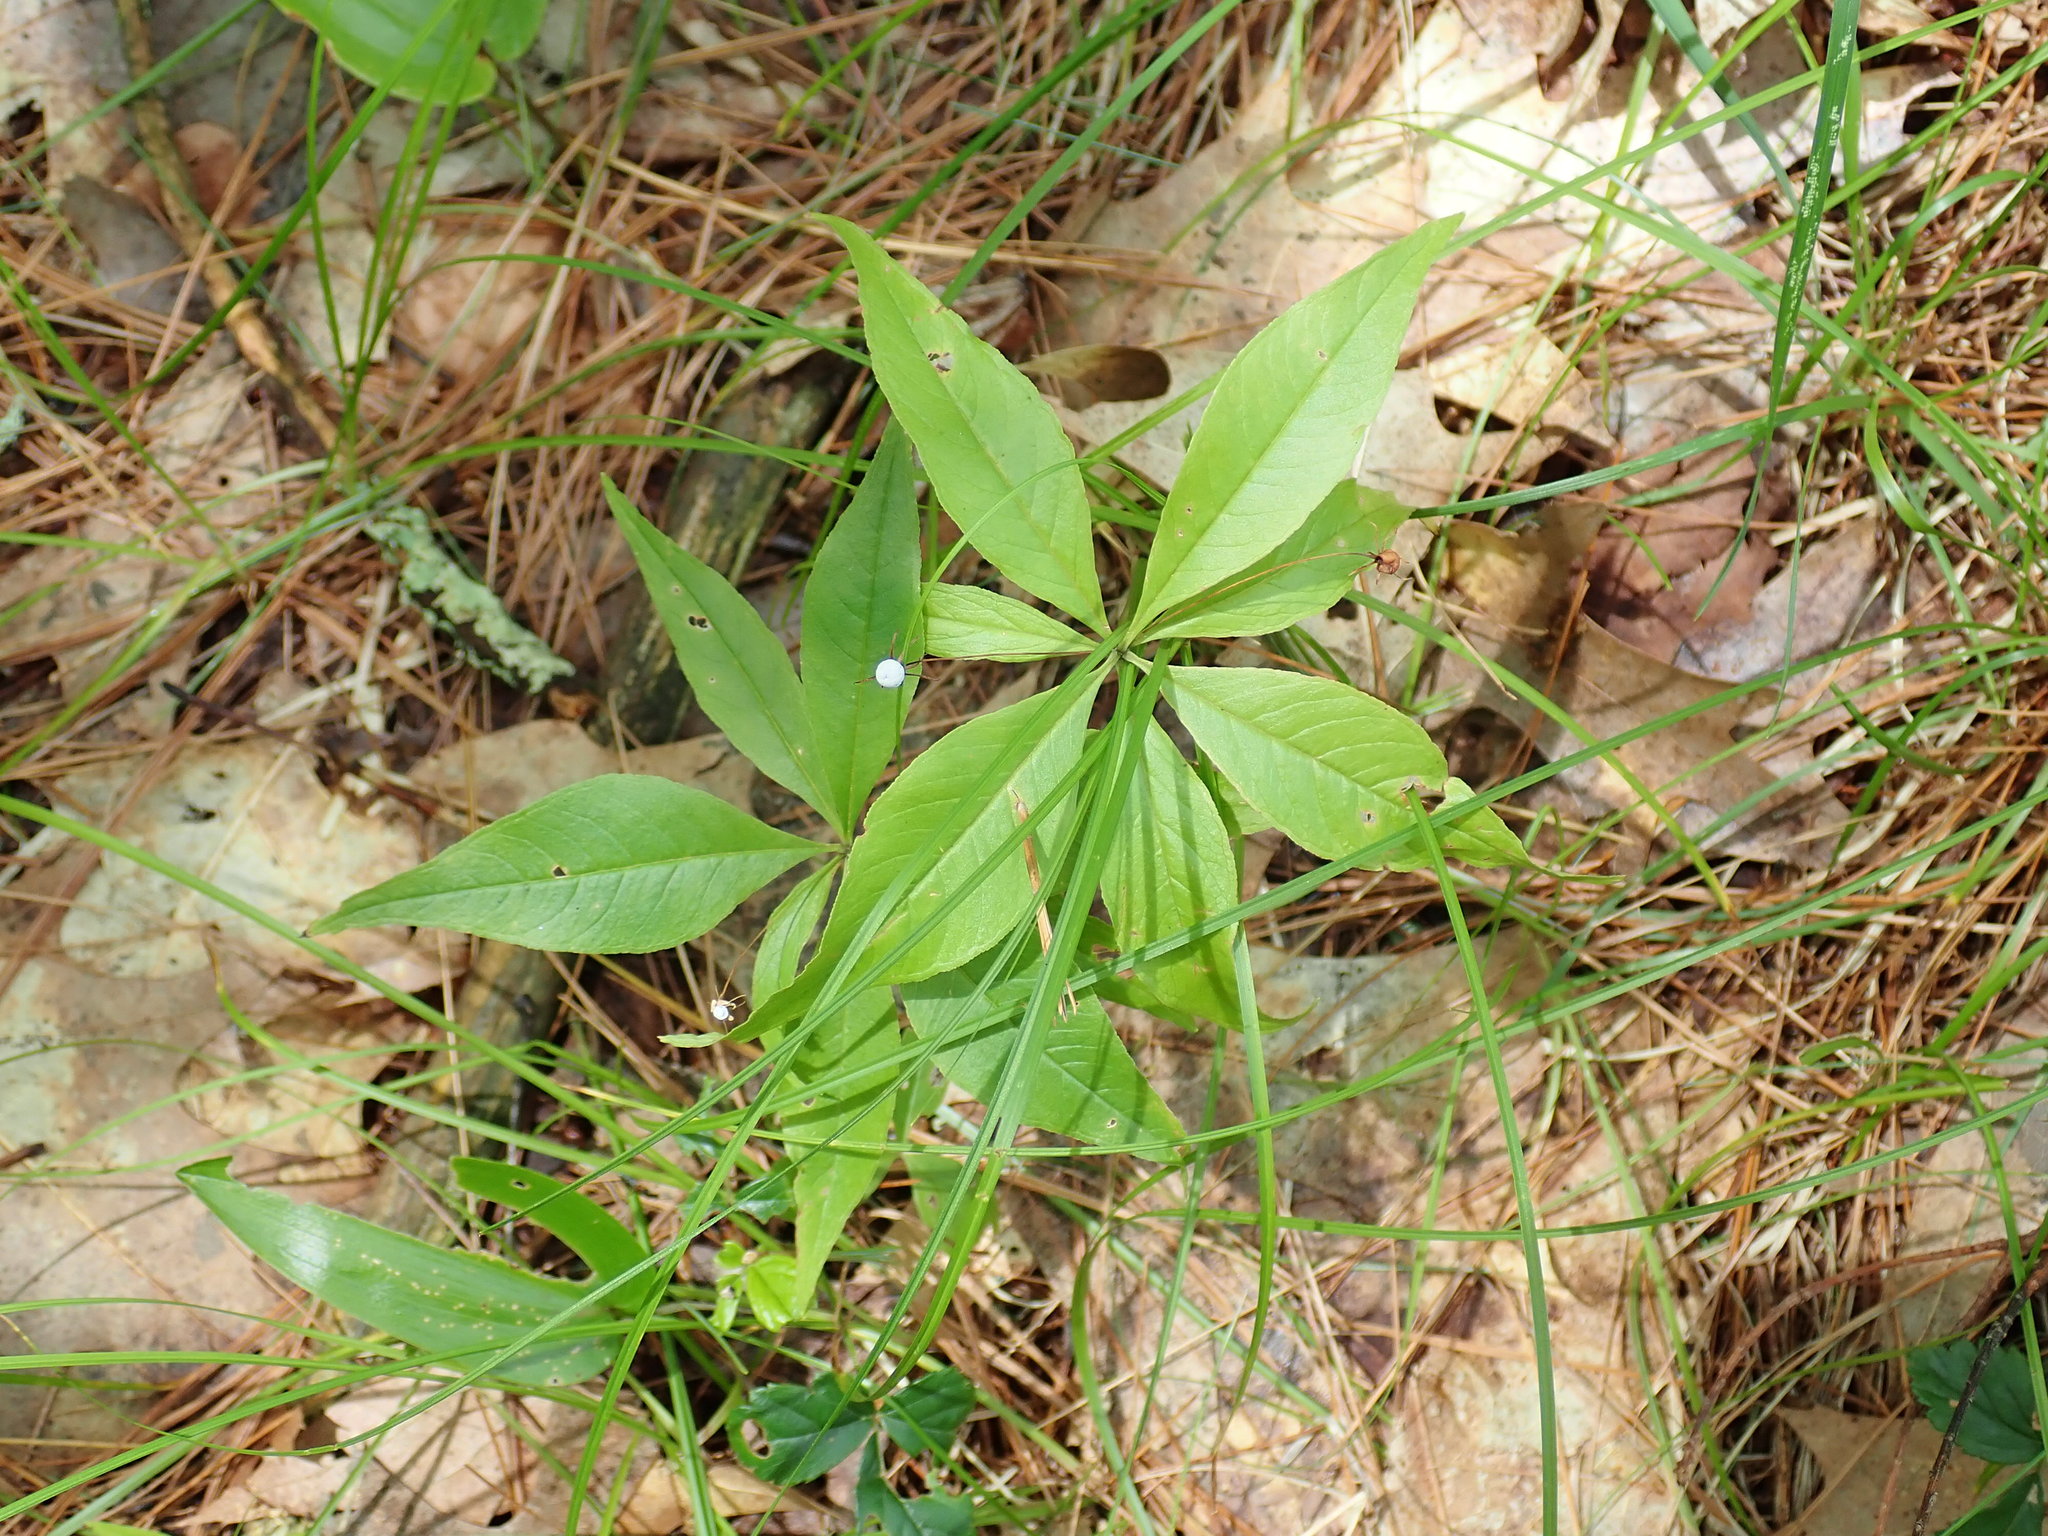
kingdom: Plantae
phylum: Tracheophyta
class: Magnoliopsida
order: Ericales
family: Primulaceae
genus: Lysimachia
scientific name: Lysimachia borealis
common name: American starflower
